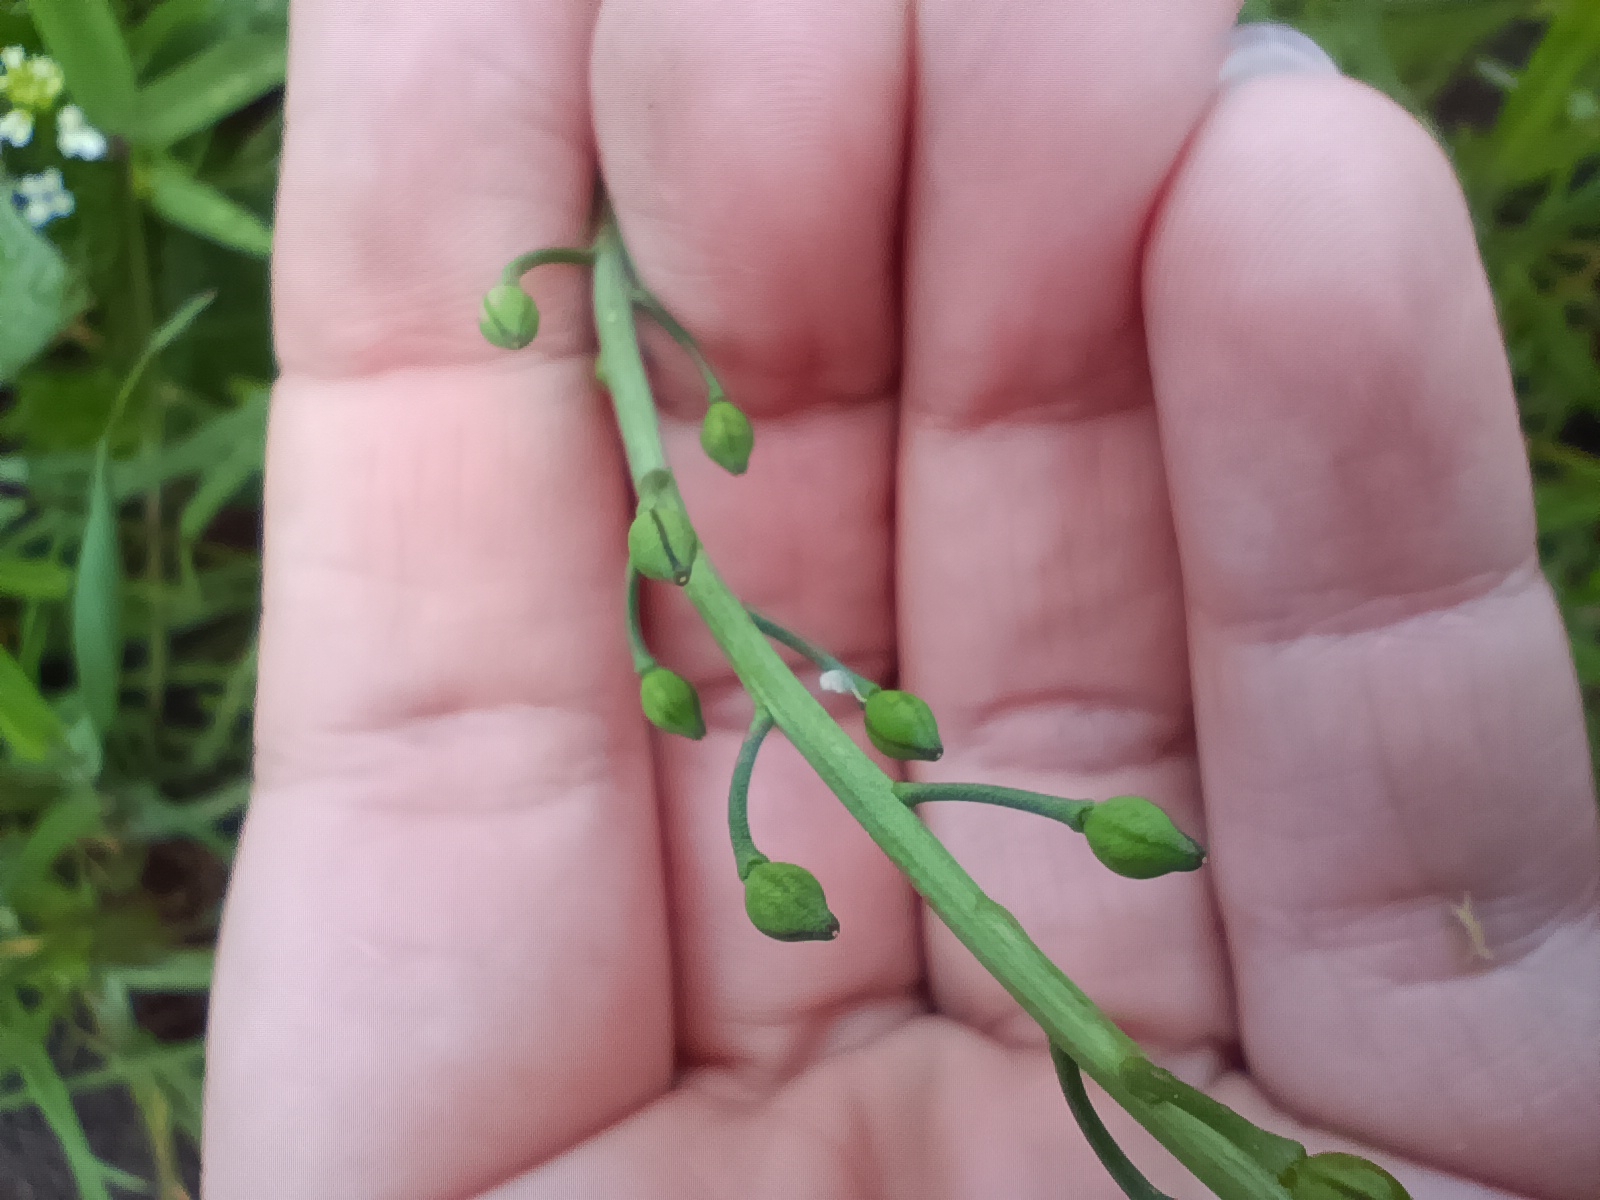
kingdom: Plantae
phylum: Tracheophyta
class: Magnoliopsida
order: Brassicales
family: Brassicaceae
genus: Calepina
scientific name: Calepina irregularis
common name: White ballmustard
